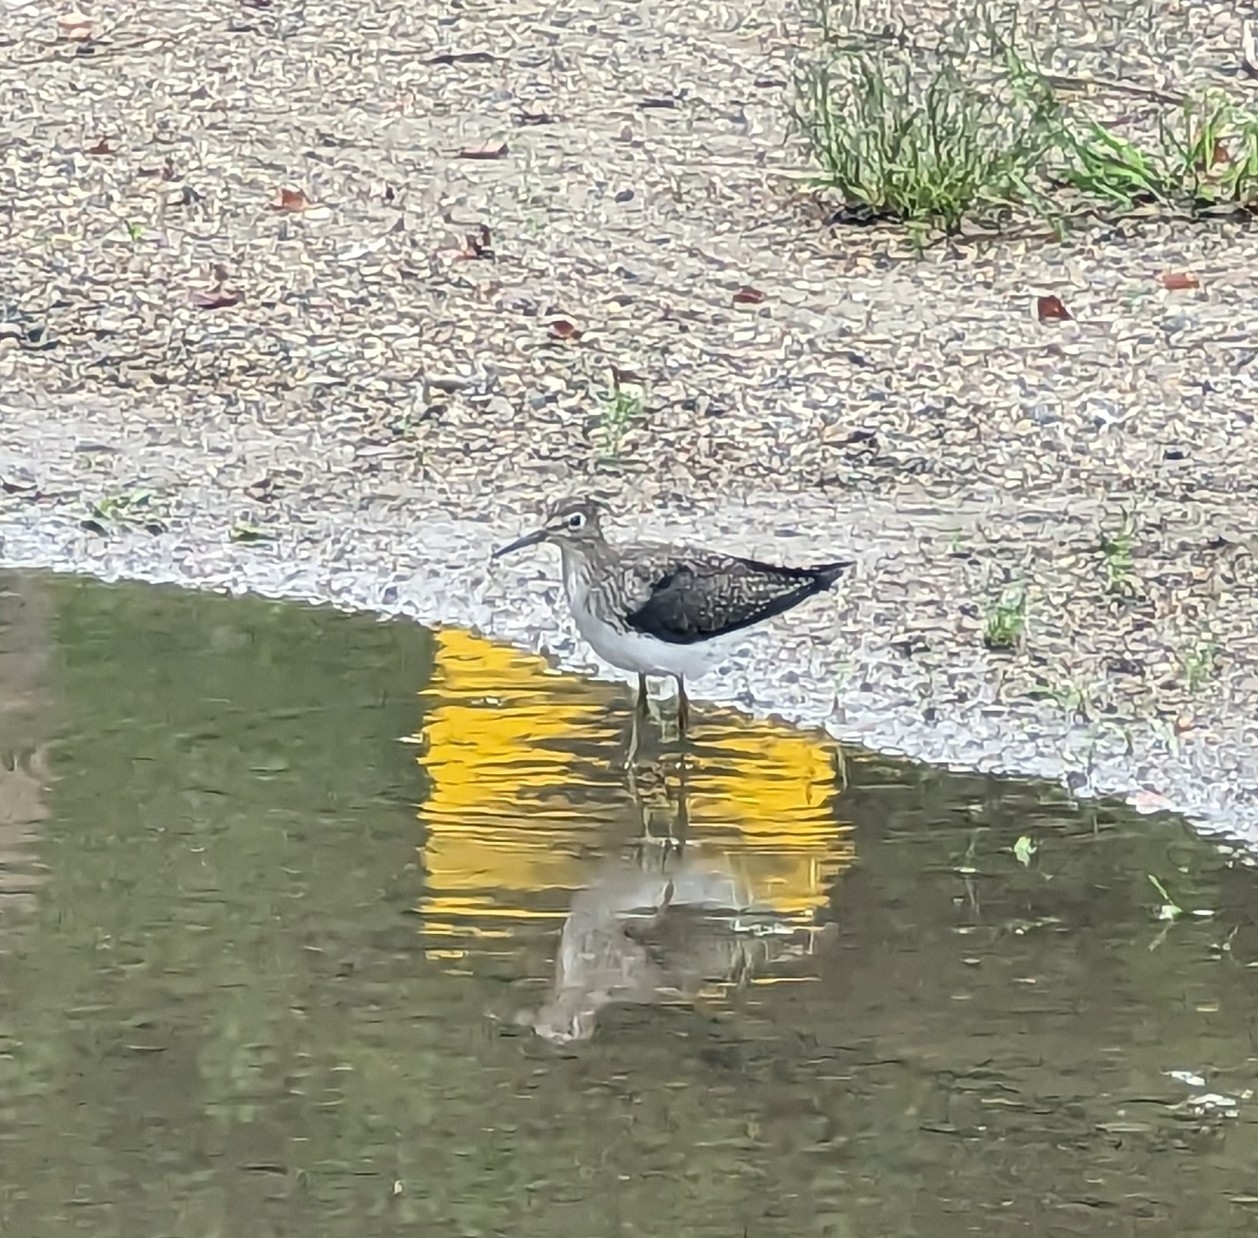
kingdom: Animalia
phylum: Chordata
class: Aves
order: Charadriiformes
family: Scolopacidae
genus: Tringa
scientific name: Tringa solitaria
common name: Solitary sandpiper
